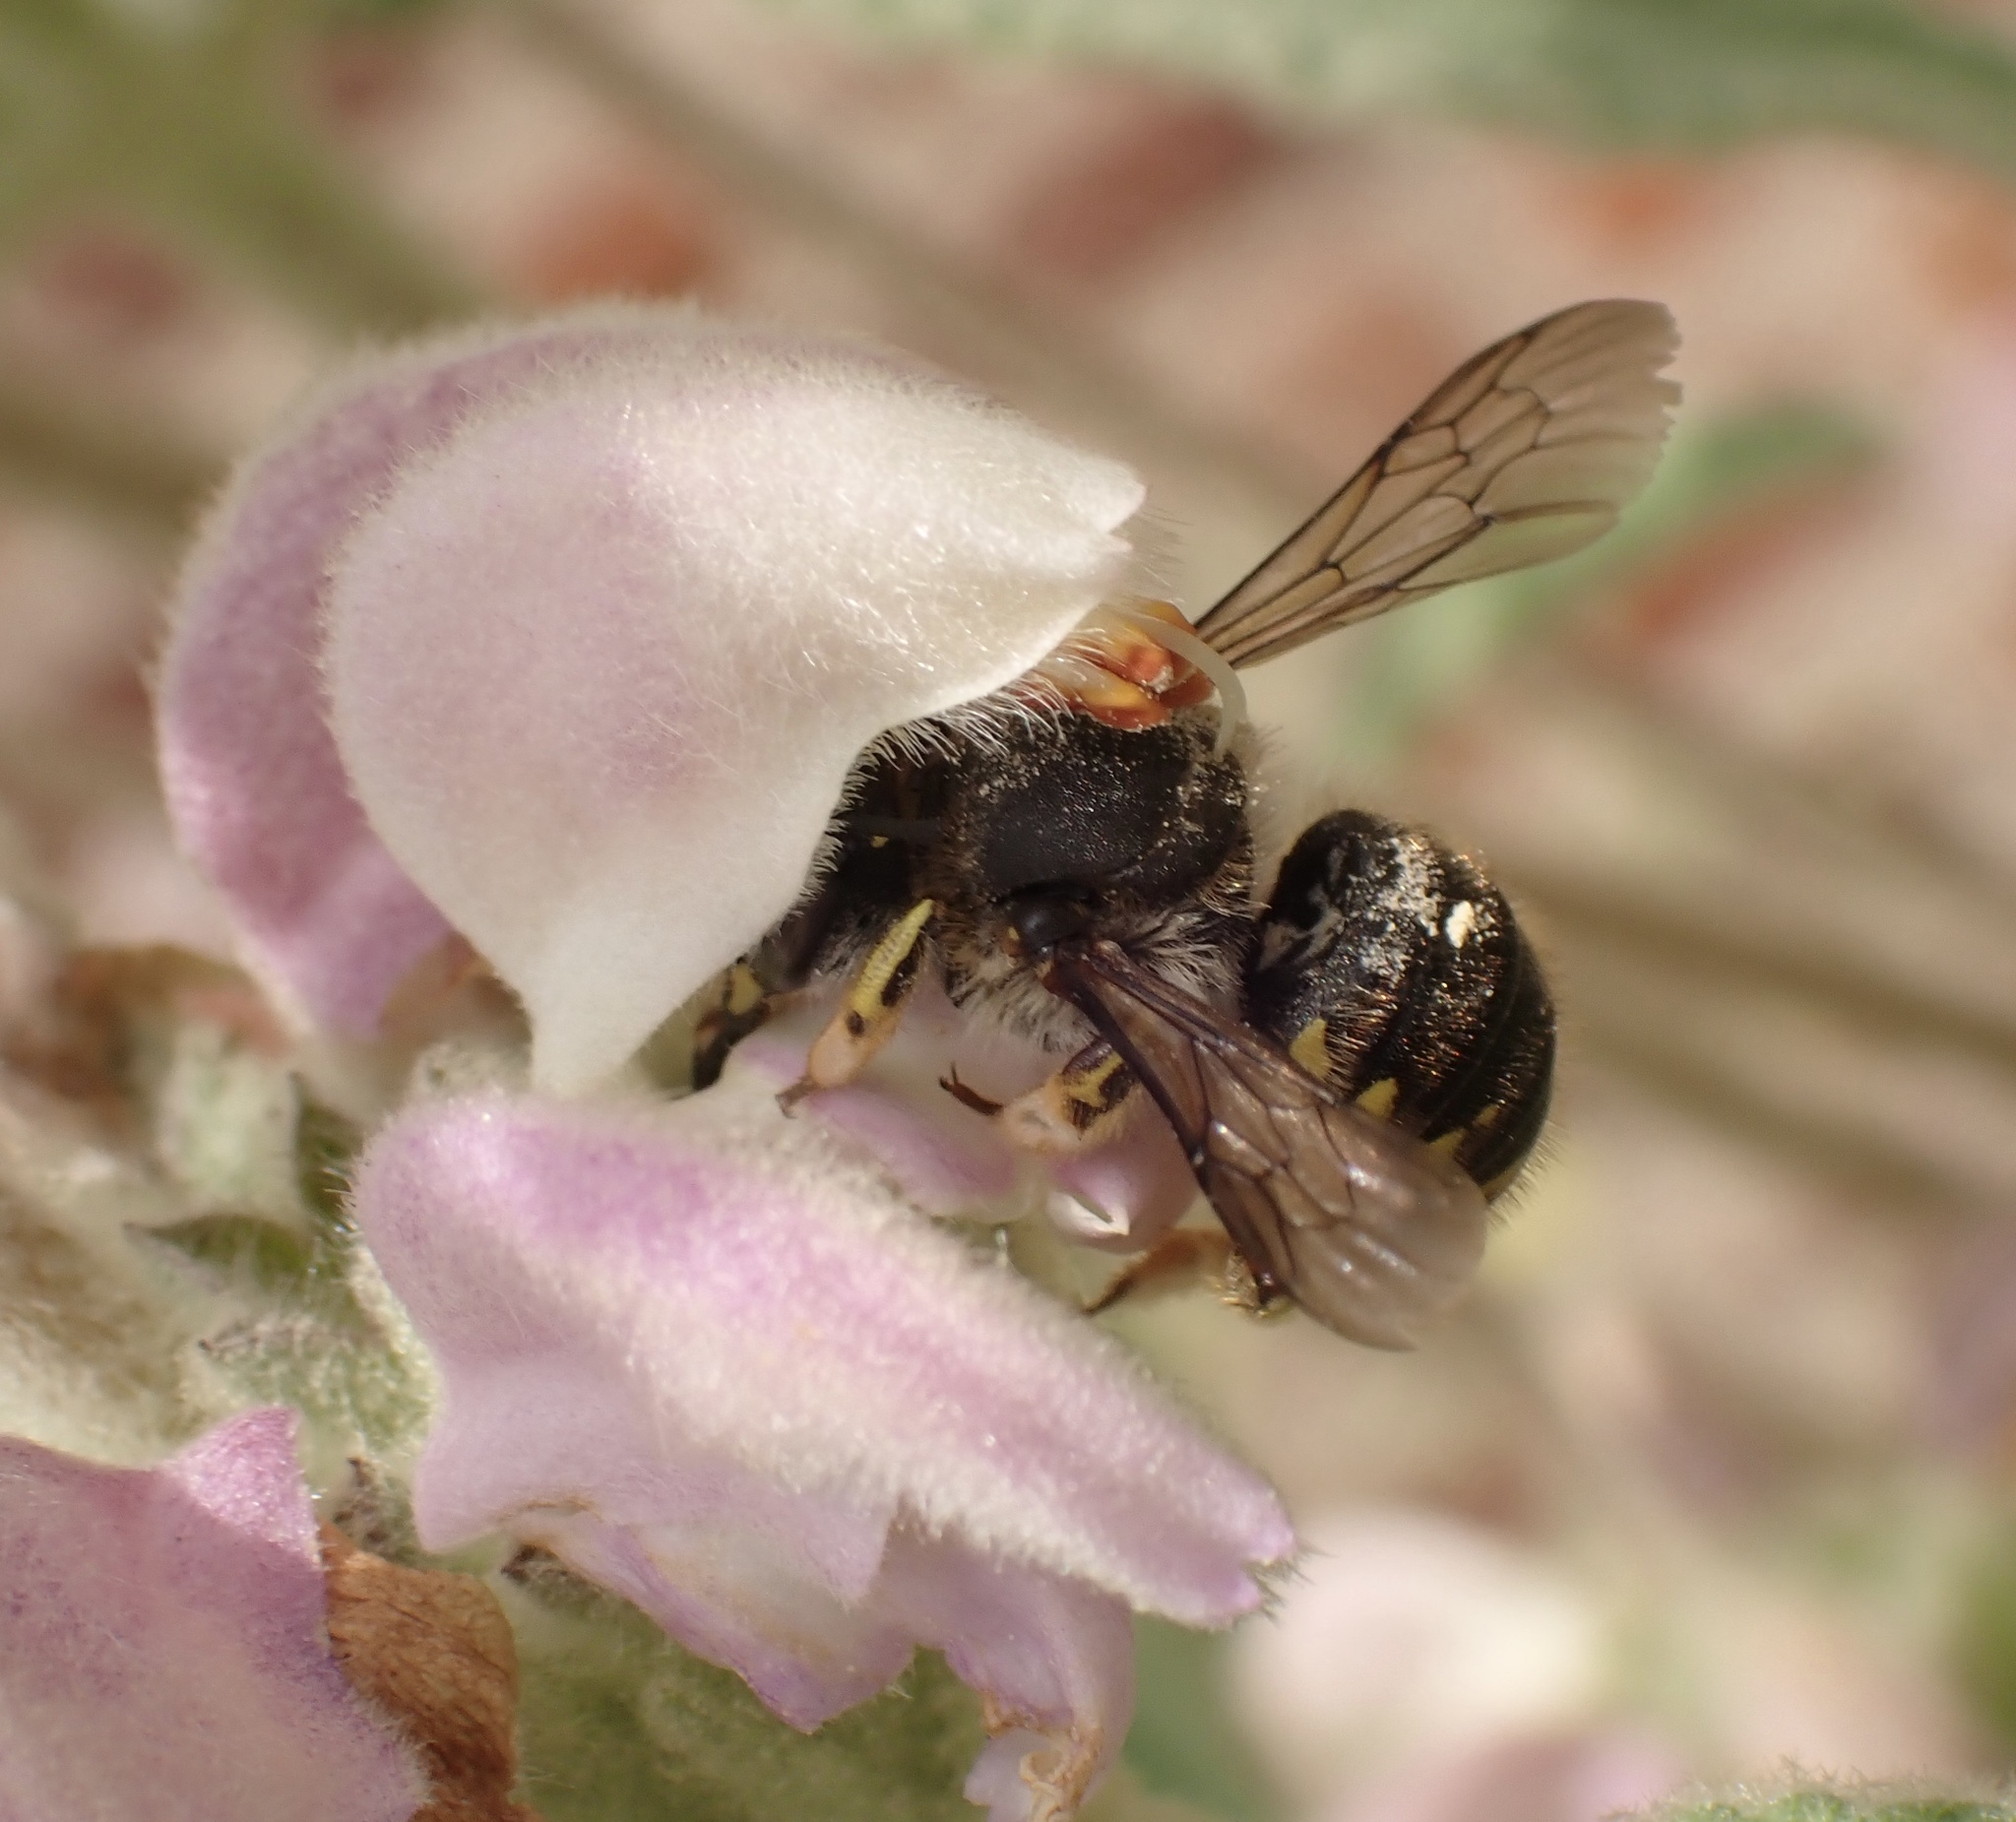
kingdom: Animalia
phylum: Arthropoda
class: Insecta
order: Hymenoptera
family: Megachilidae
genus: Anthidium
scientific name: Anthidium manicatum
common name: Wool carder bee
